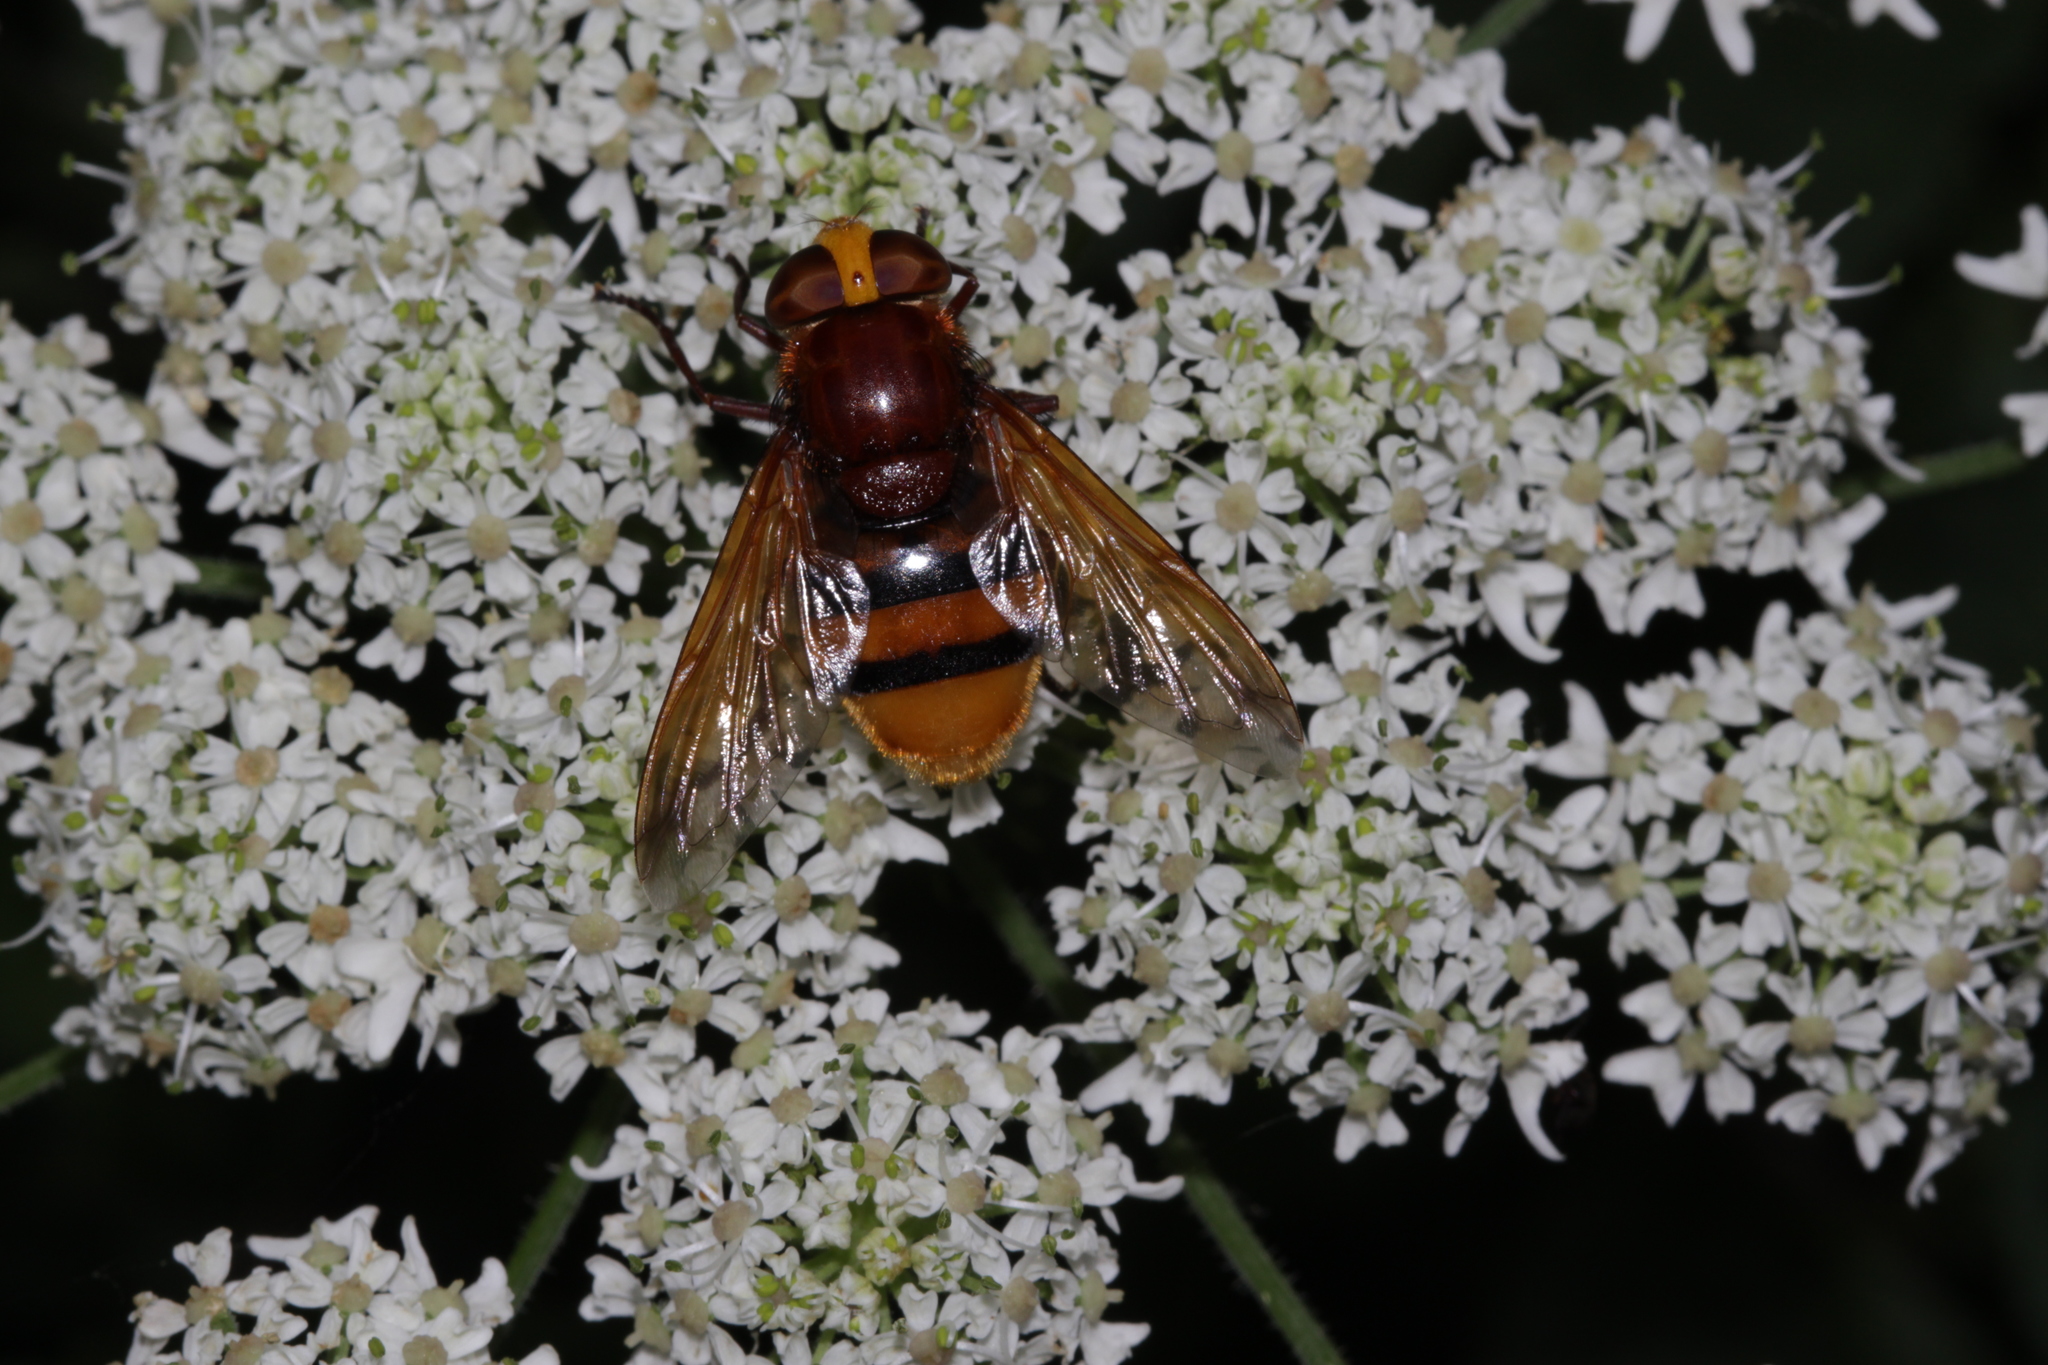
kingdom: Animalia
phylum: Arthropoda
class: Insecta
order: Diptera
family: Syrphidae
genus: Volucella
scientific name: Volucella zonaria
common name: Hornet hoverfly
